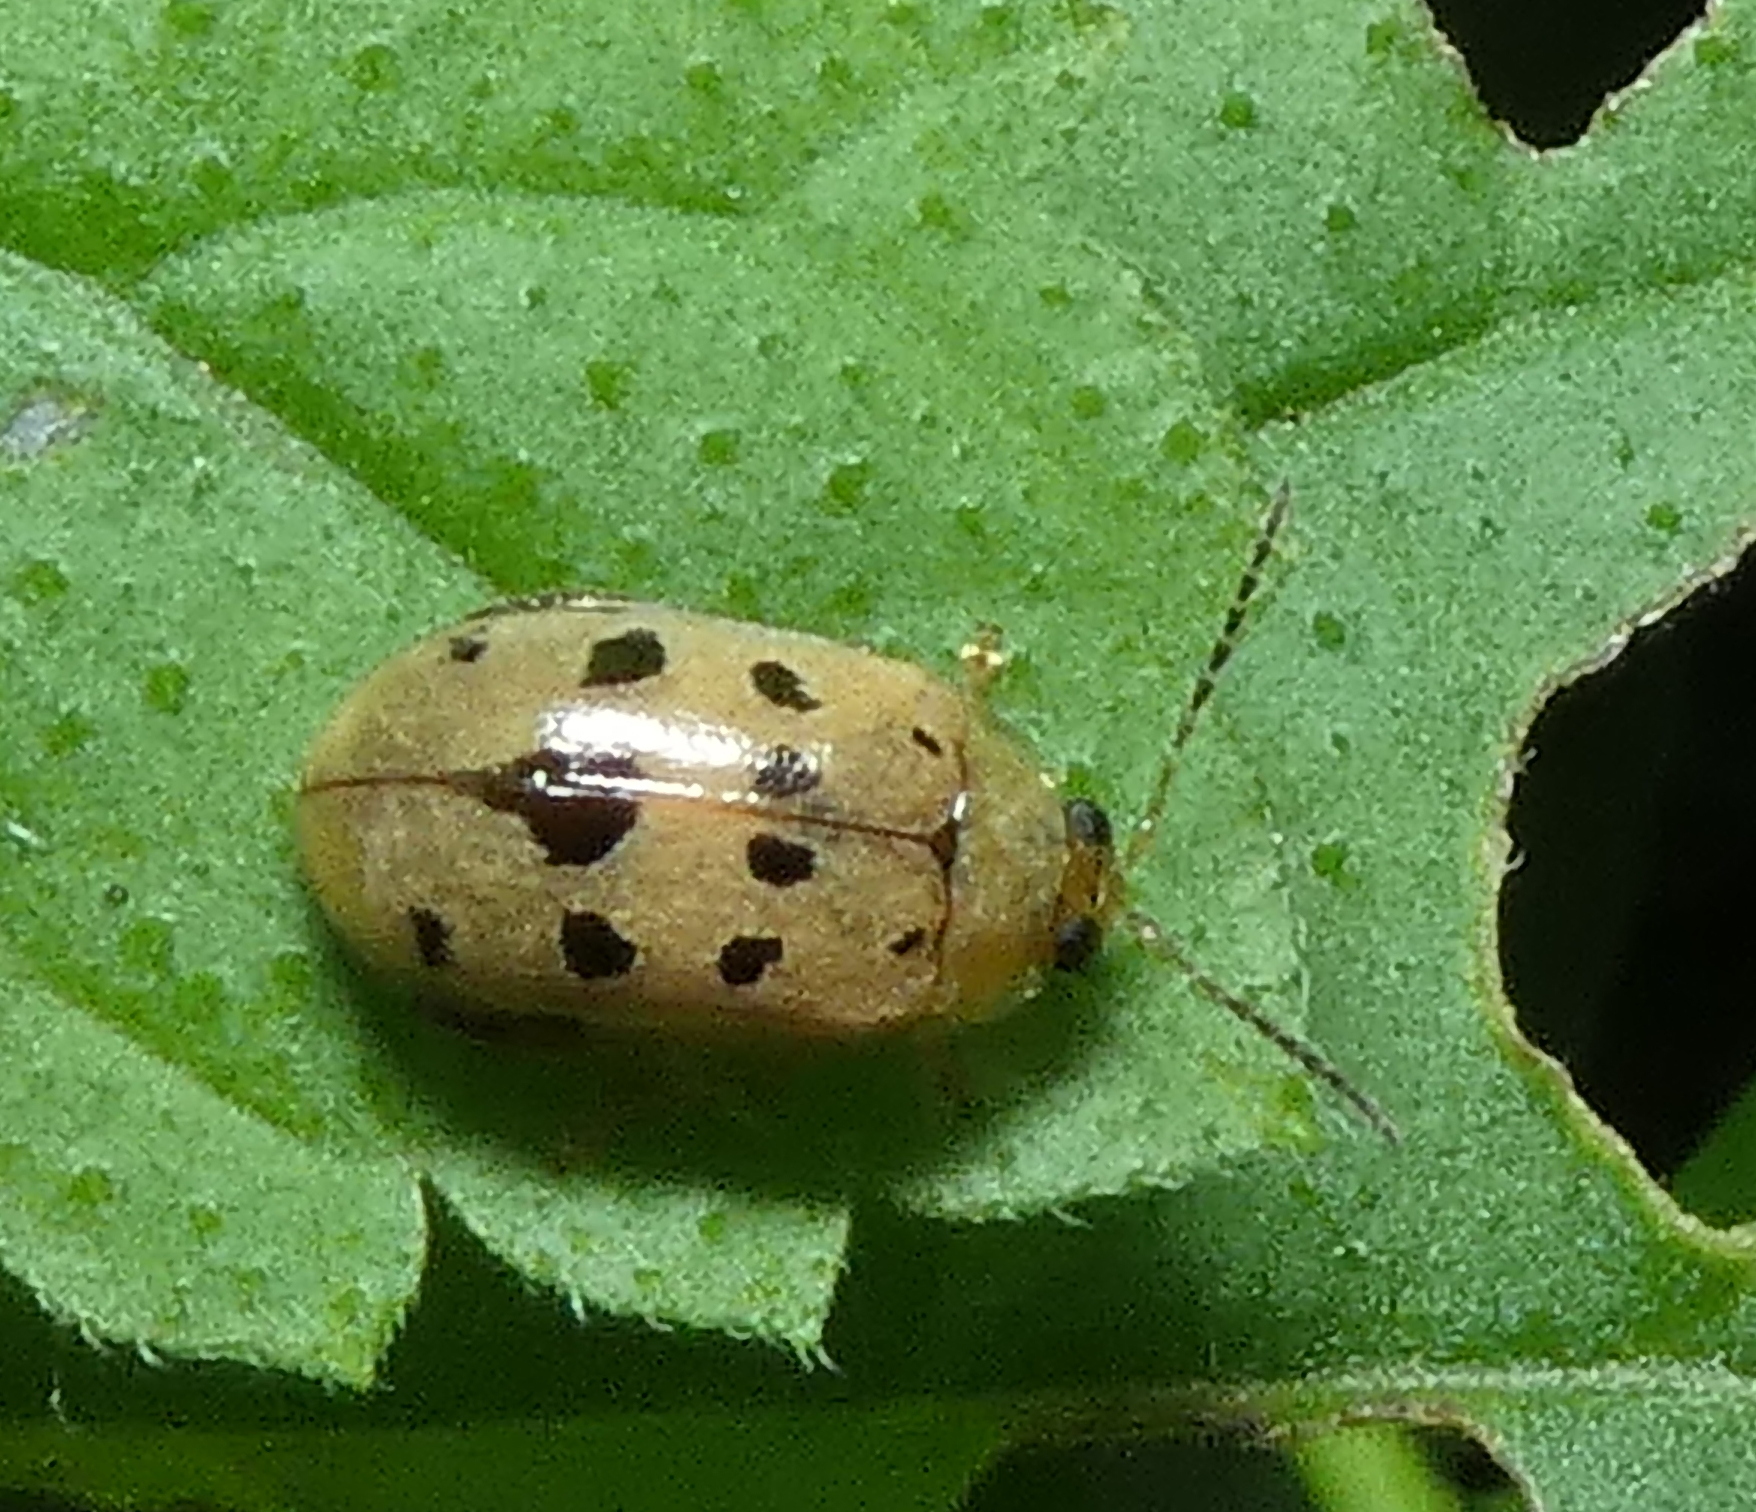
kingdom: Animalia
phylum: Arthropoda
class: Insecta
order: Coleoptera
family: Chrysomelidae
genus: Alagoasa
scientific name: Alagoasa
